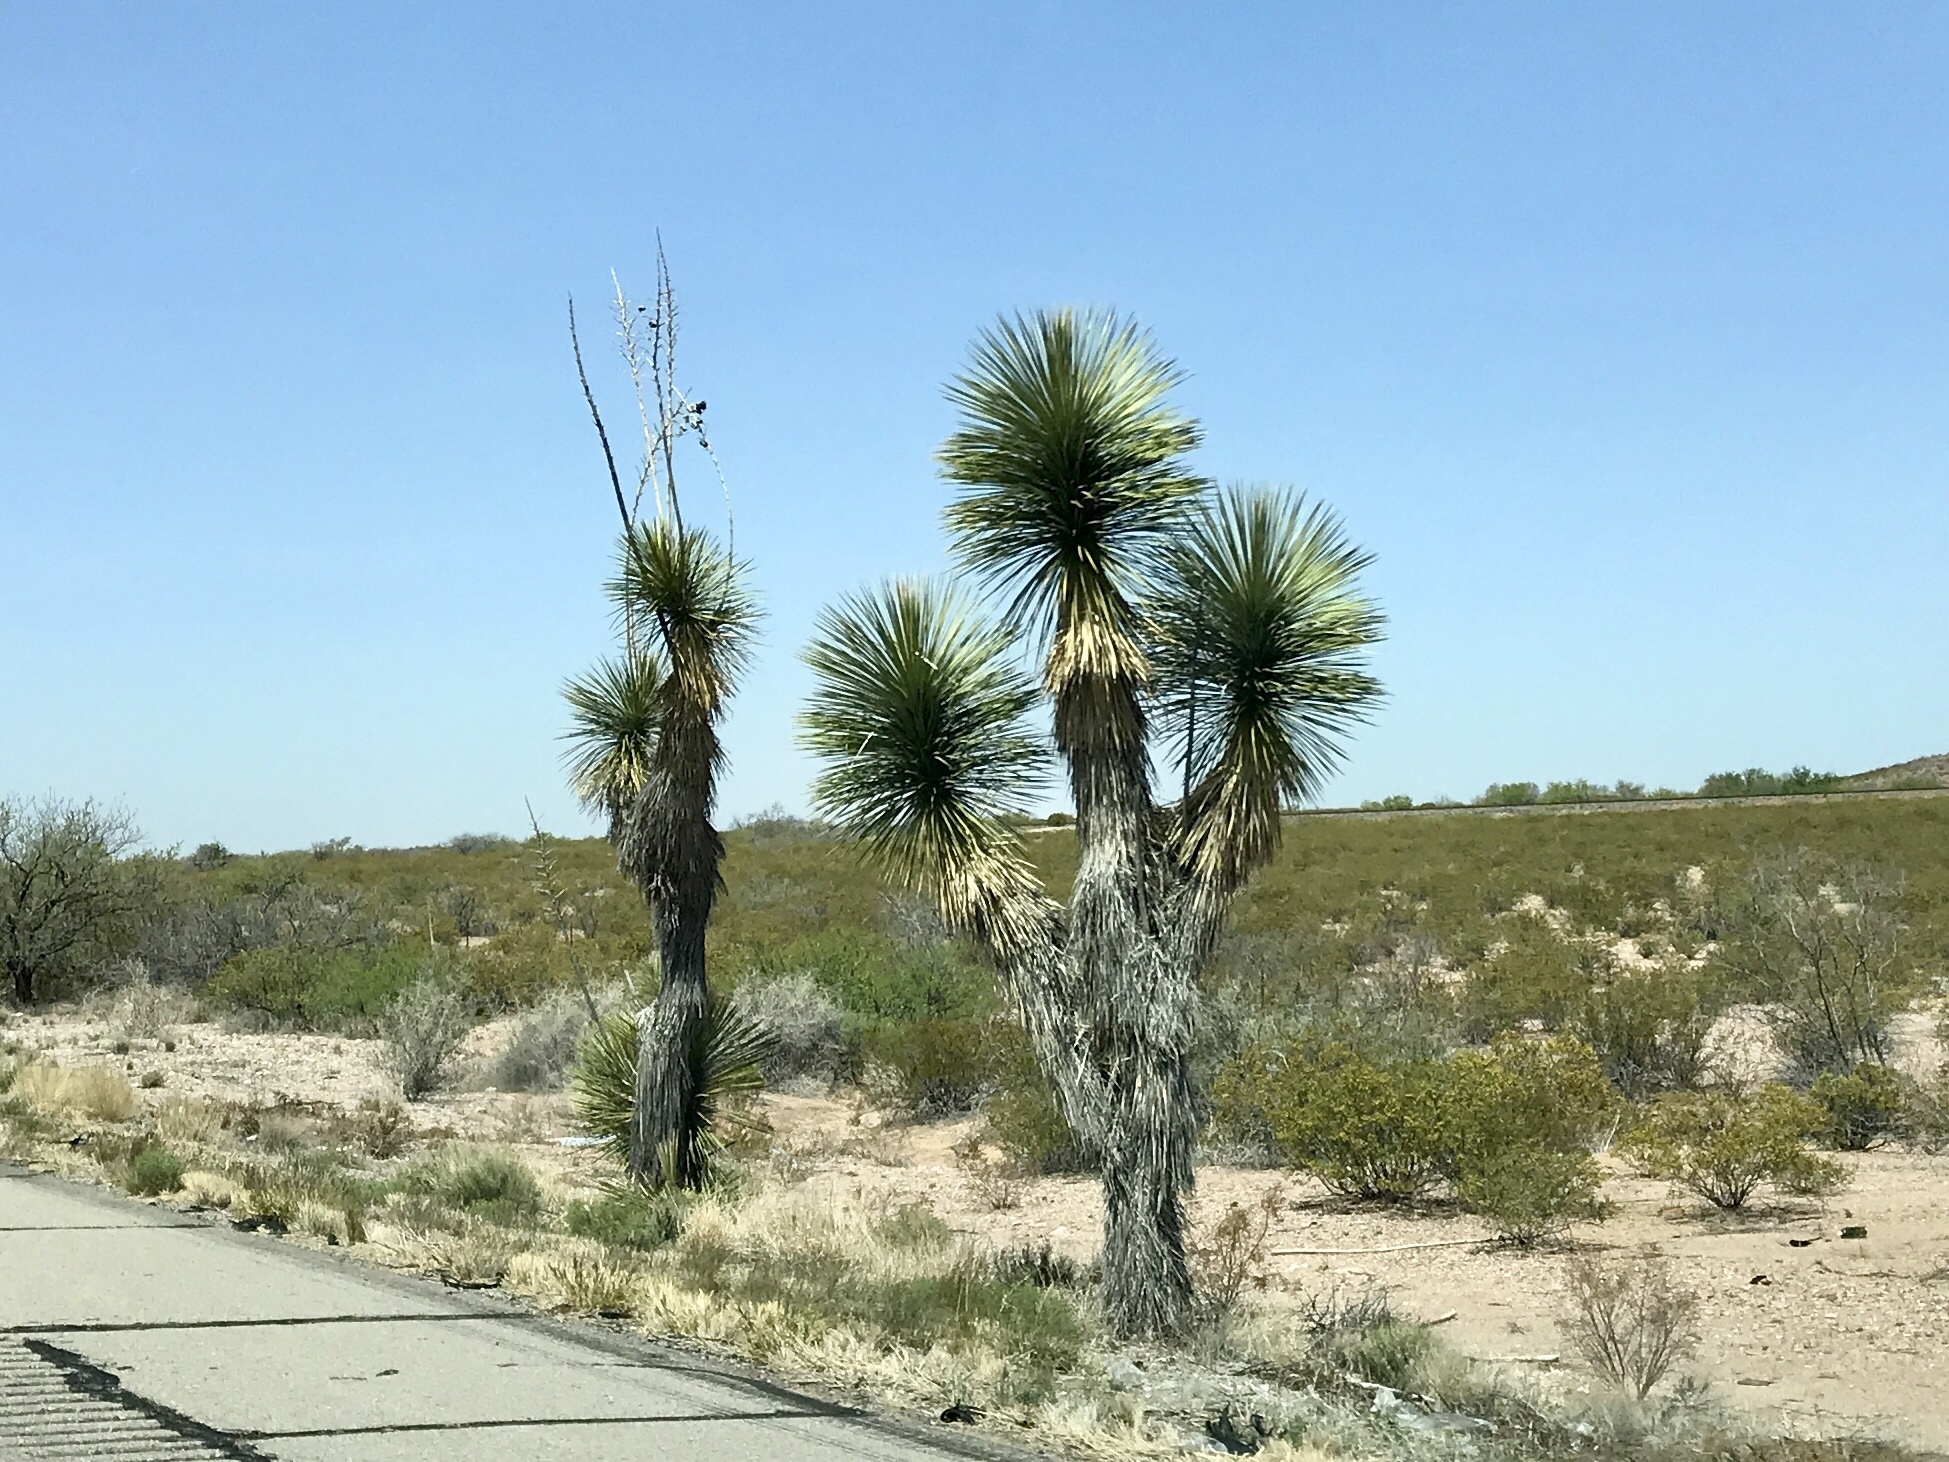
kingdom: Plantae
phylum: Tracheophyta
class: Liliopsida
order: Asparagales
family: Asparagaceae
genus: Yucca
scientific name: Yucca elata
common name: Palmella
